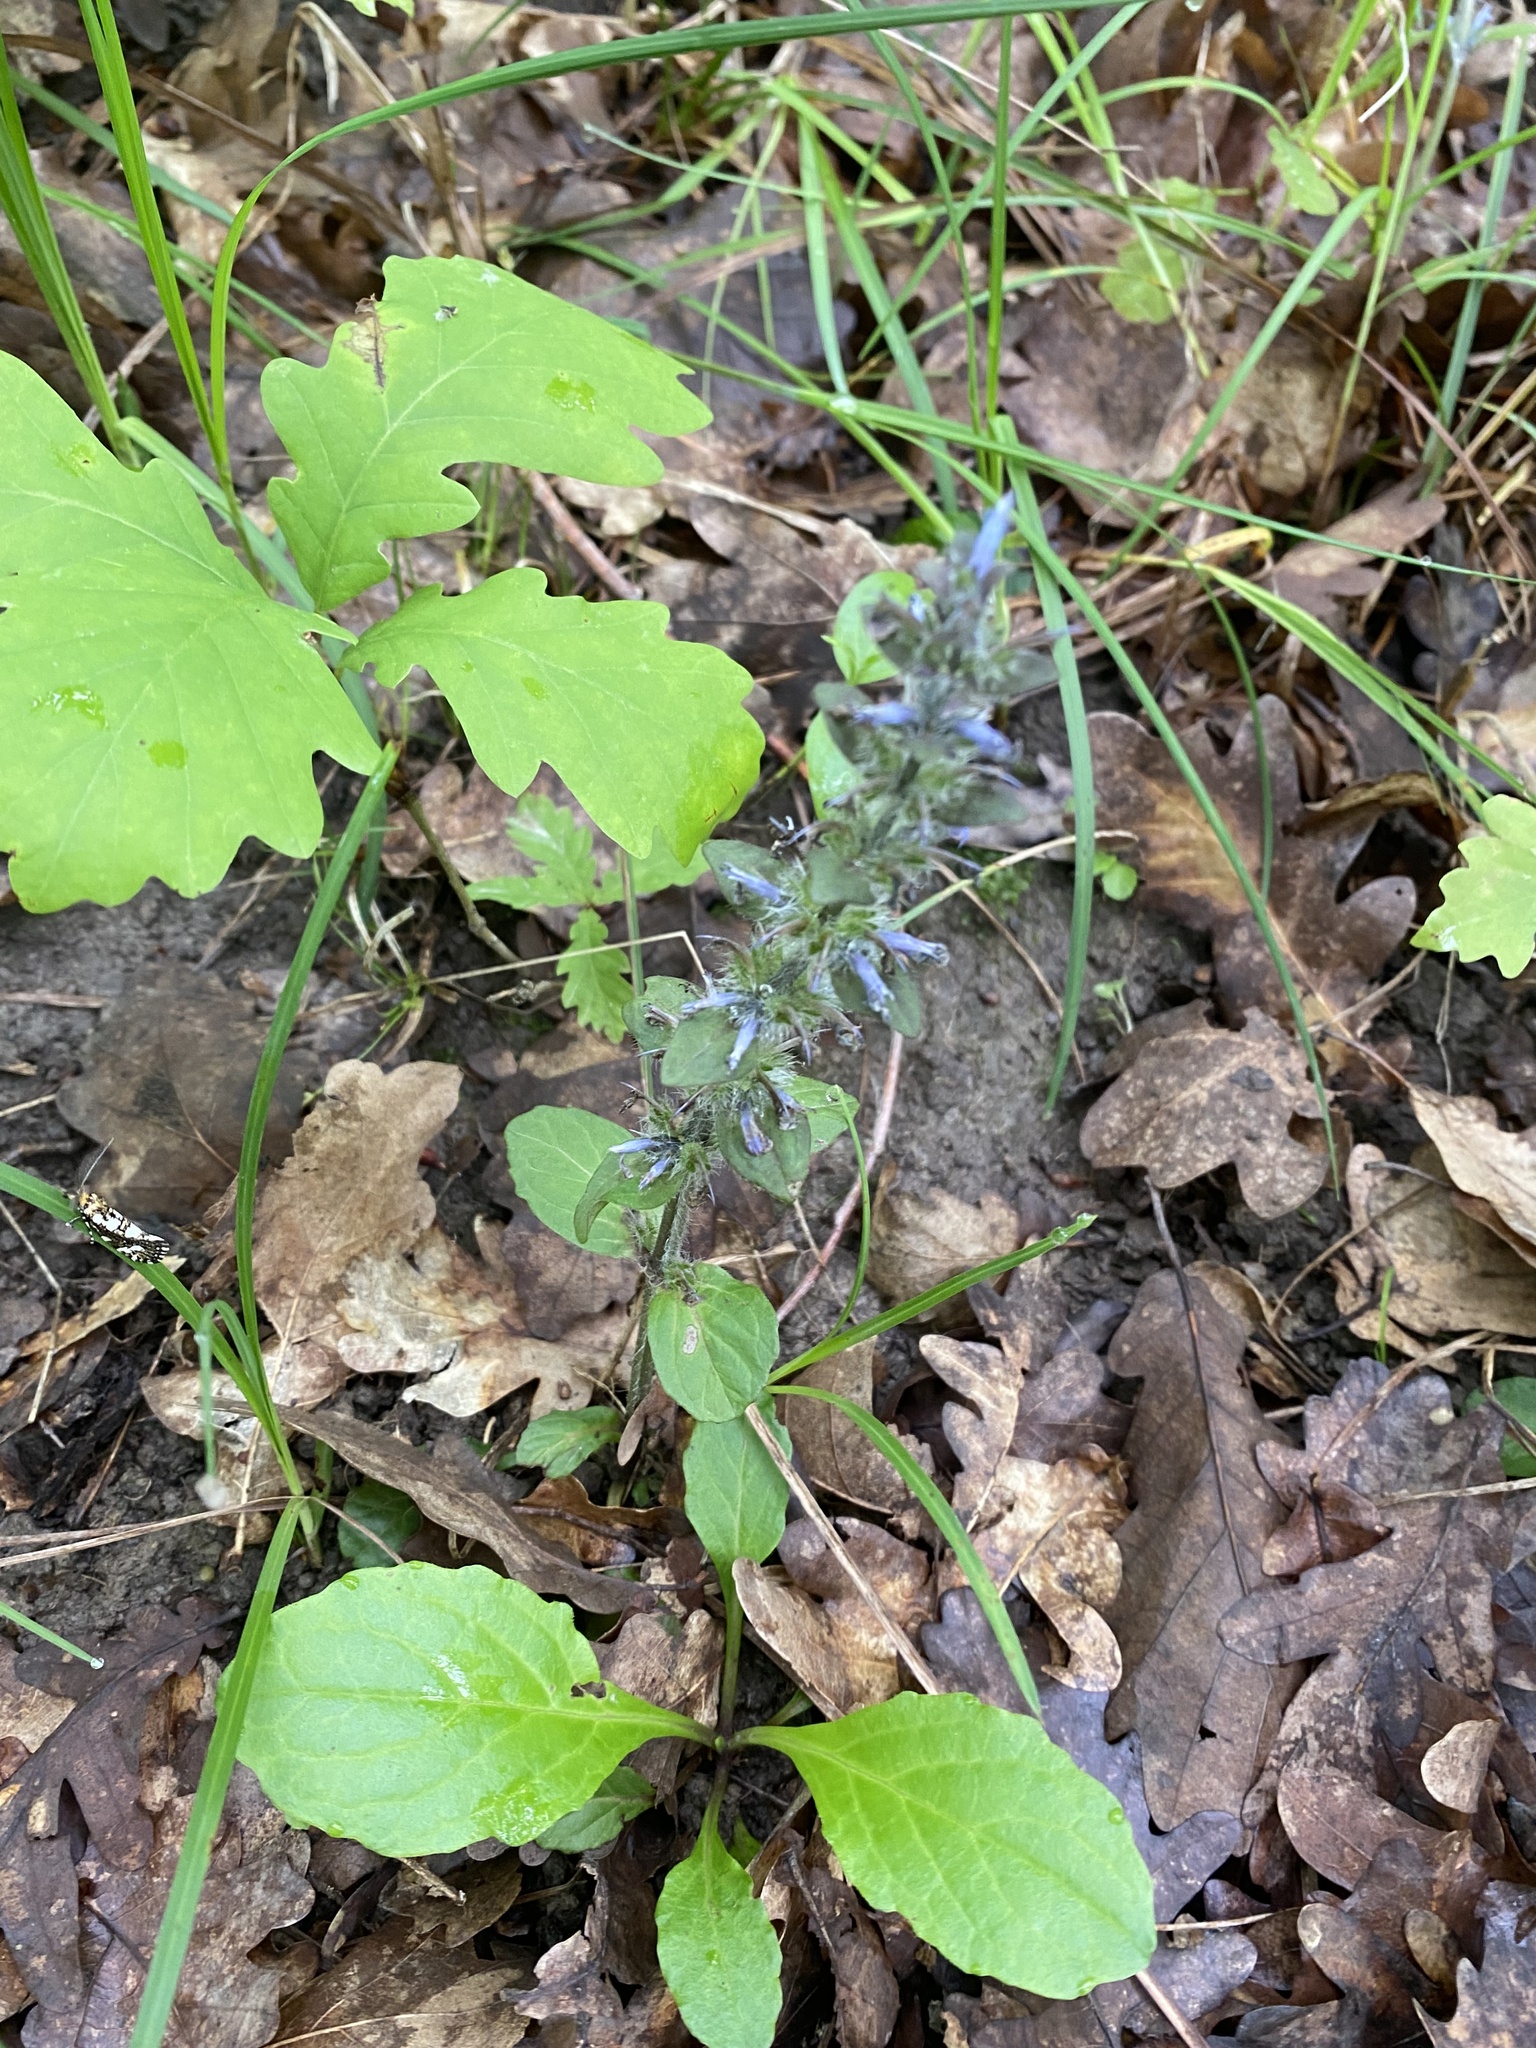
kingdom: Plantae
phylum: Tracheophyta
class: Magnoliopsida
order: Lamiales
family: Lamiaceae
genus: Ajuga
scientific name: Ajuga reptans
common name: Bugle
